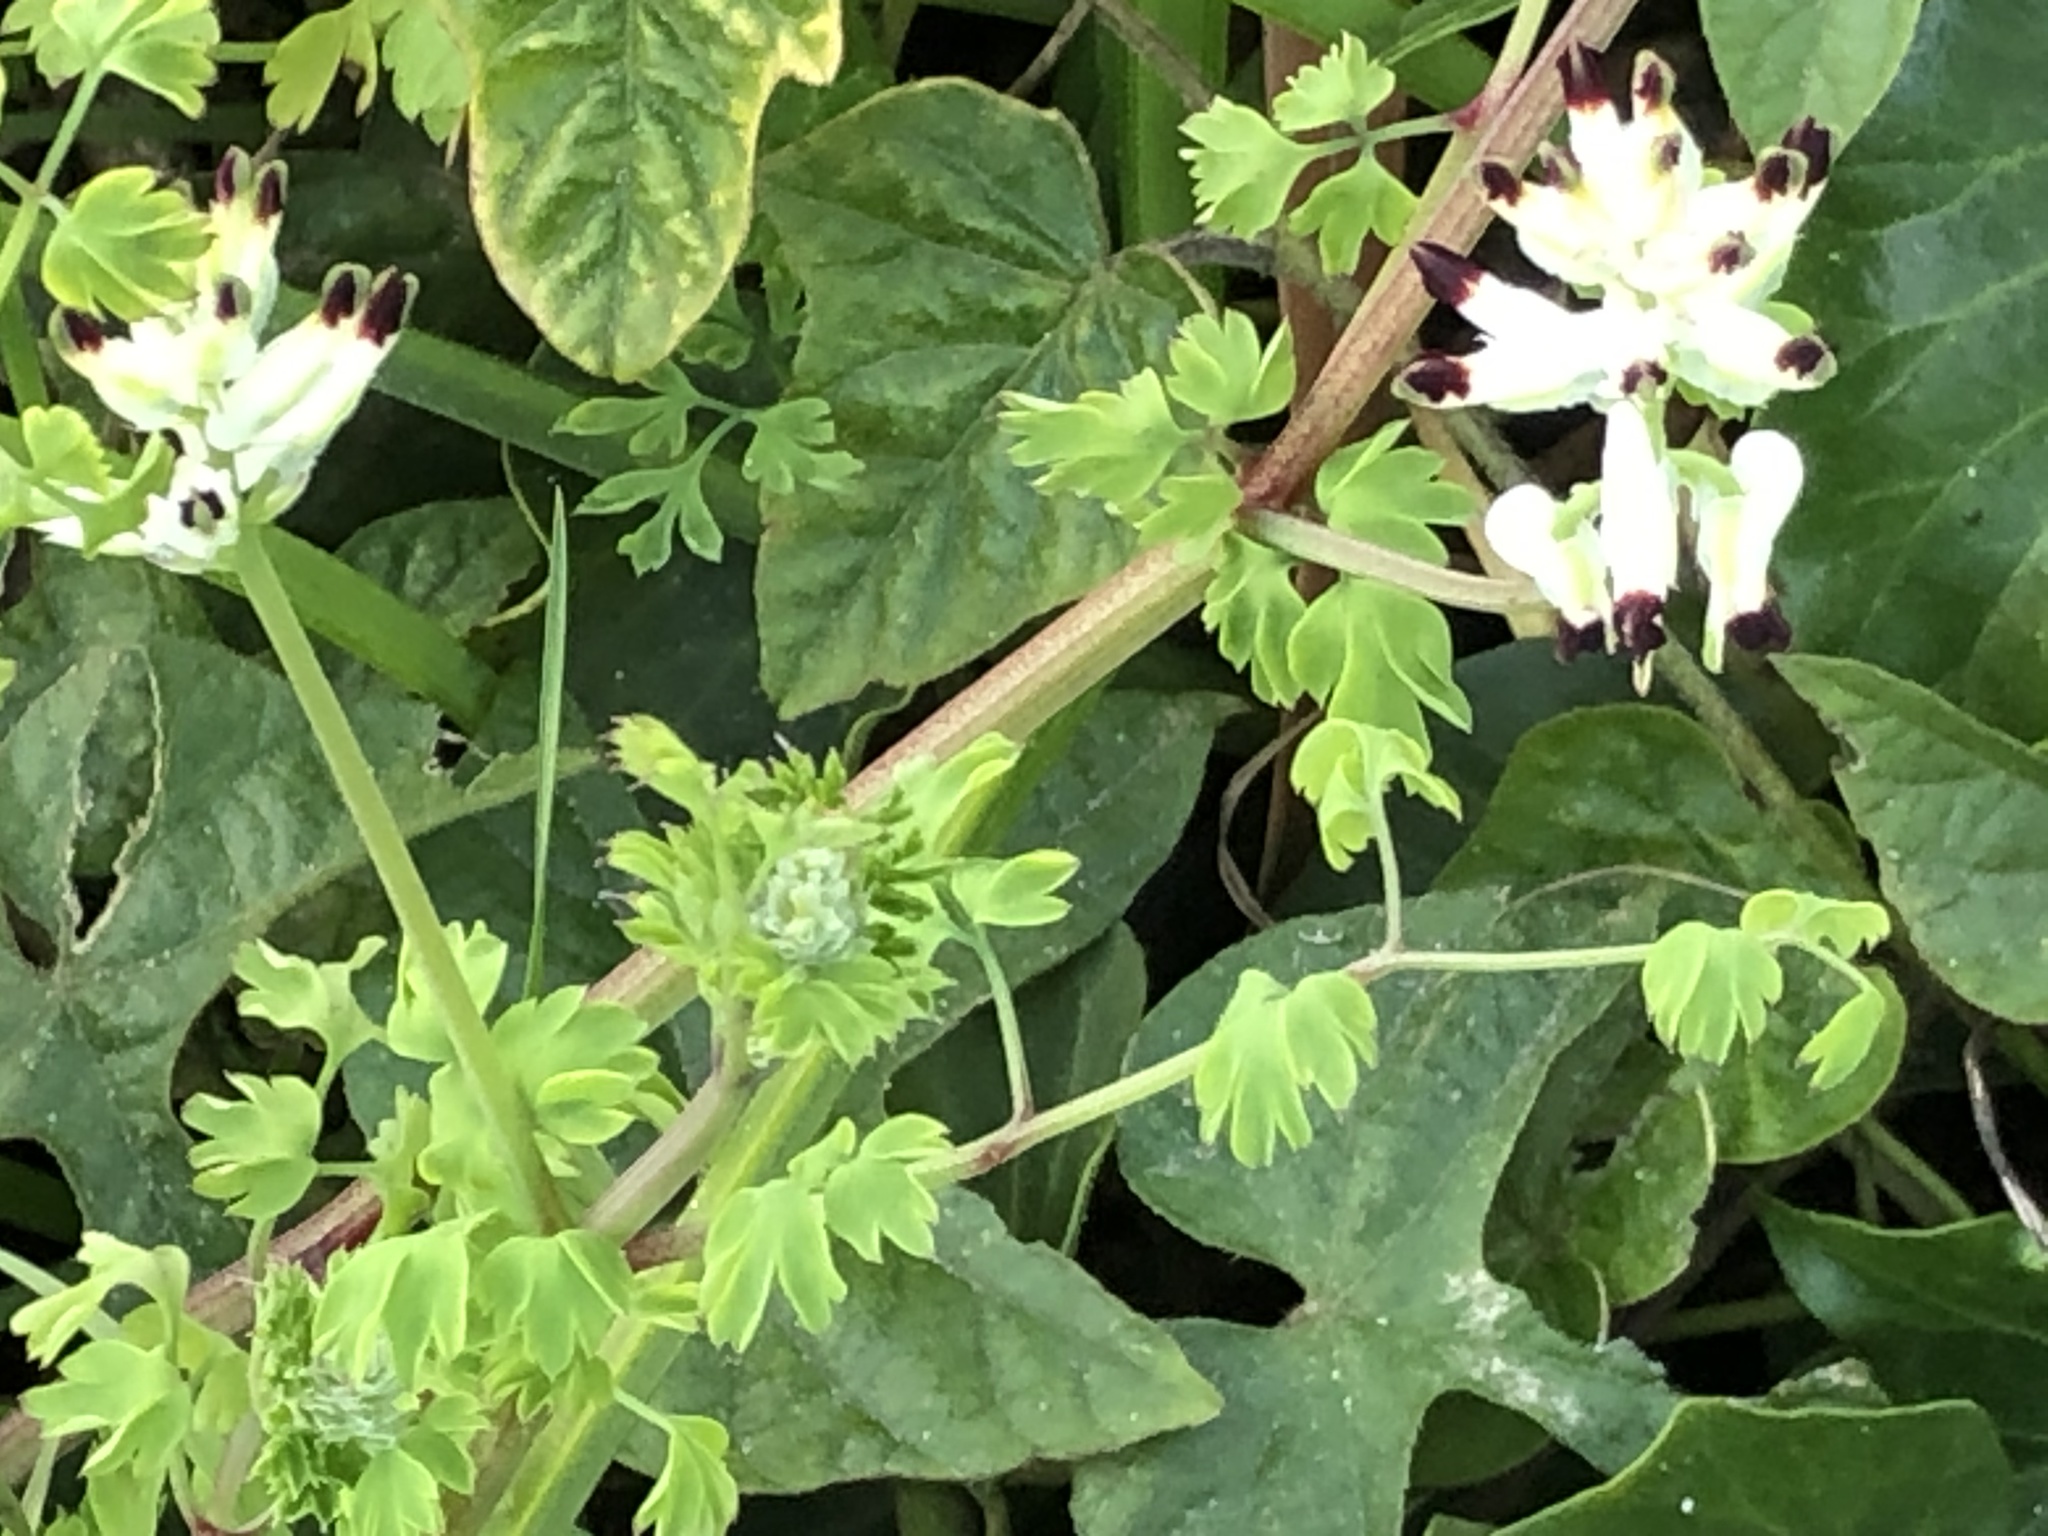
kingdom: Plantae
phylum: Tracheophyta
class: Magnoliopsida
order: Ranunculales
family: Papaveraceae
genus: Fumaria
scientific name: Fumaria capreolata
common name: White ramping-fumitory
